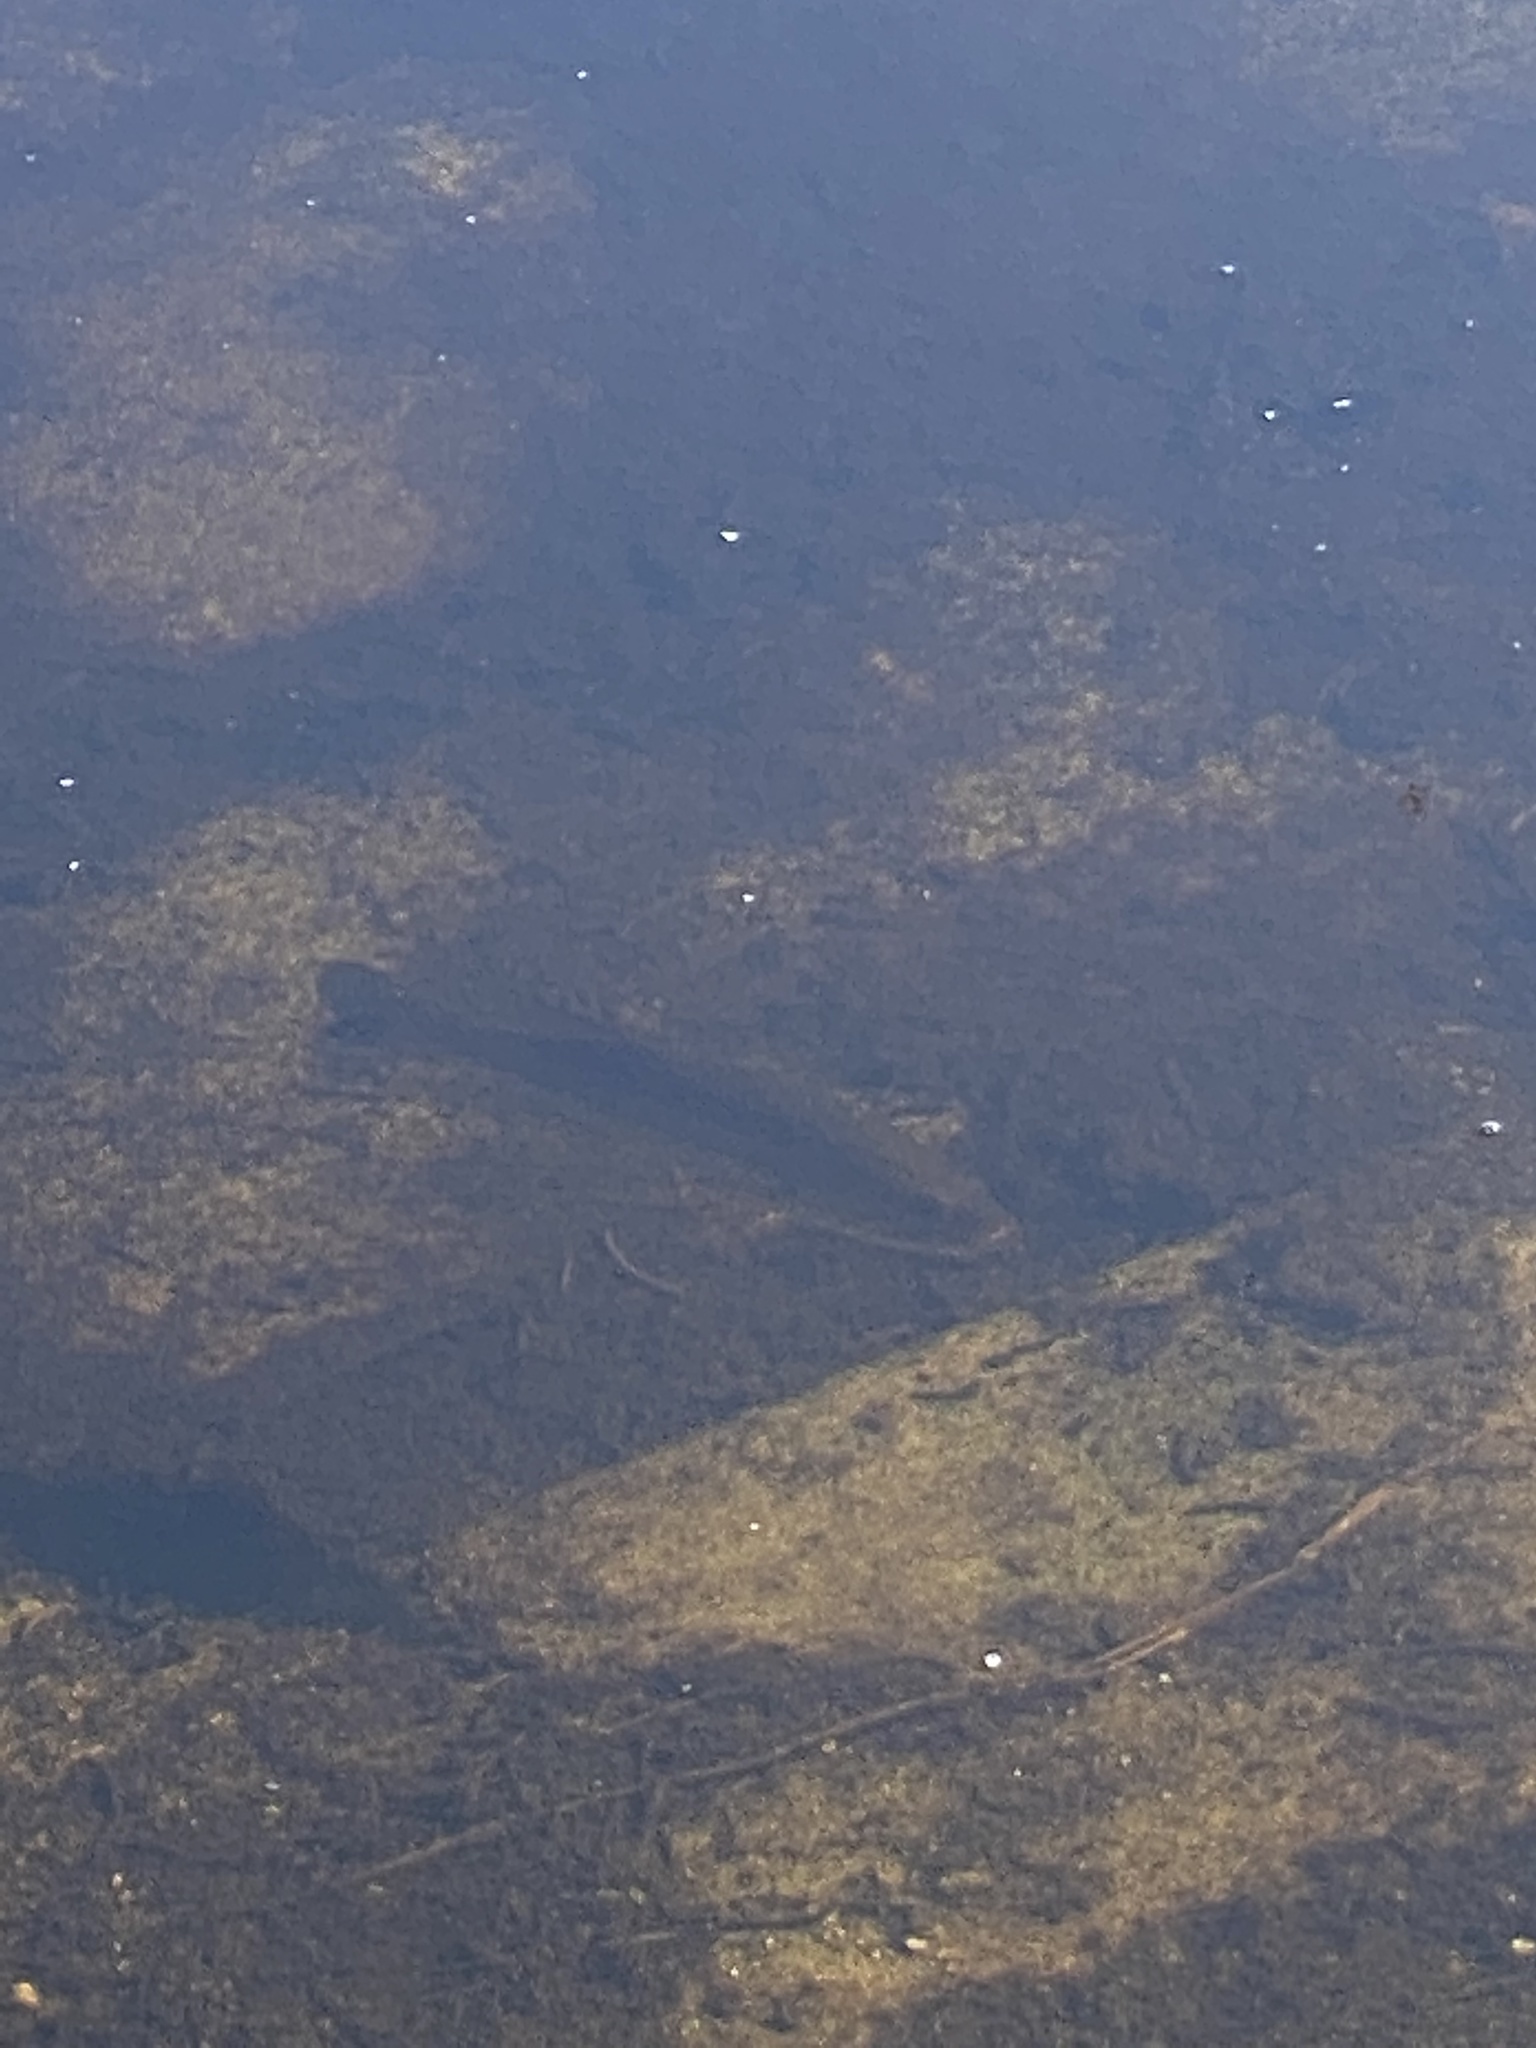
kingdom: Animalia
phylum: Chordata
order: Perciformes
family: Centrarchidae
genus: Micropterus
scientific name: Micropterus salmoides
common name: Largemouth bass
